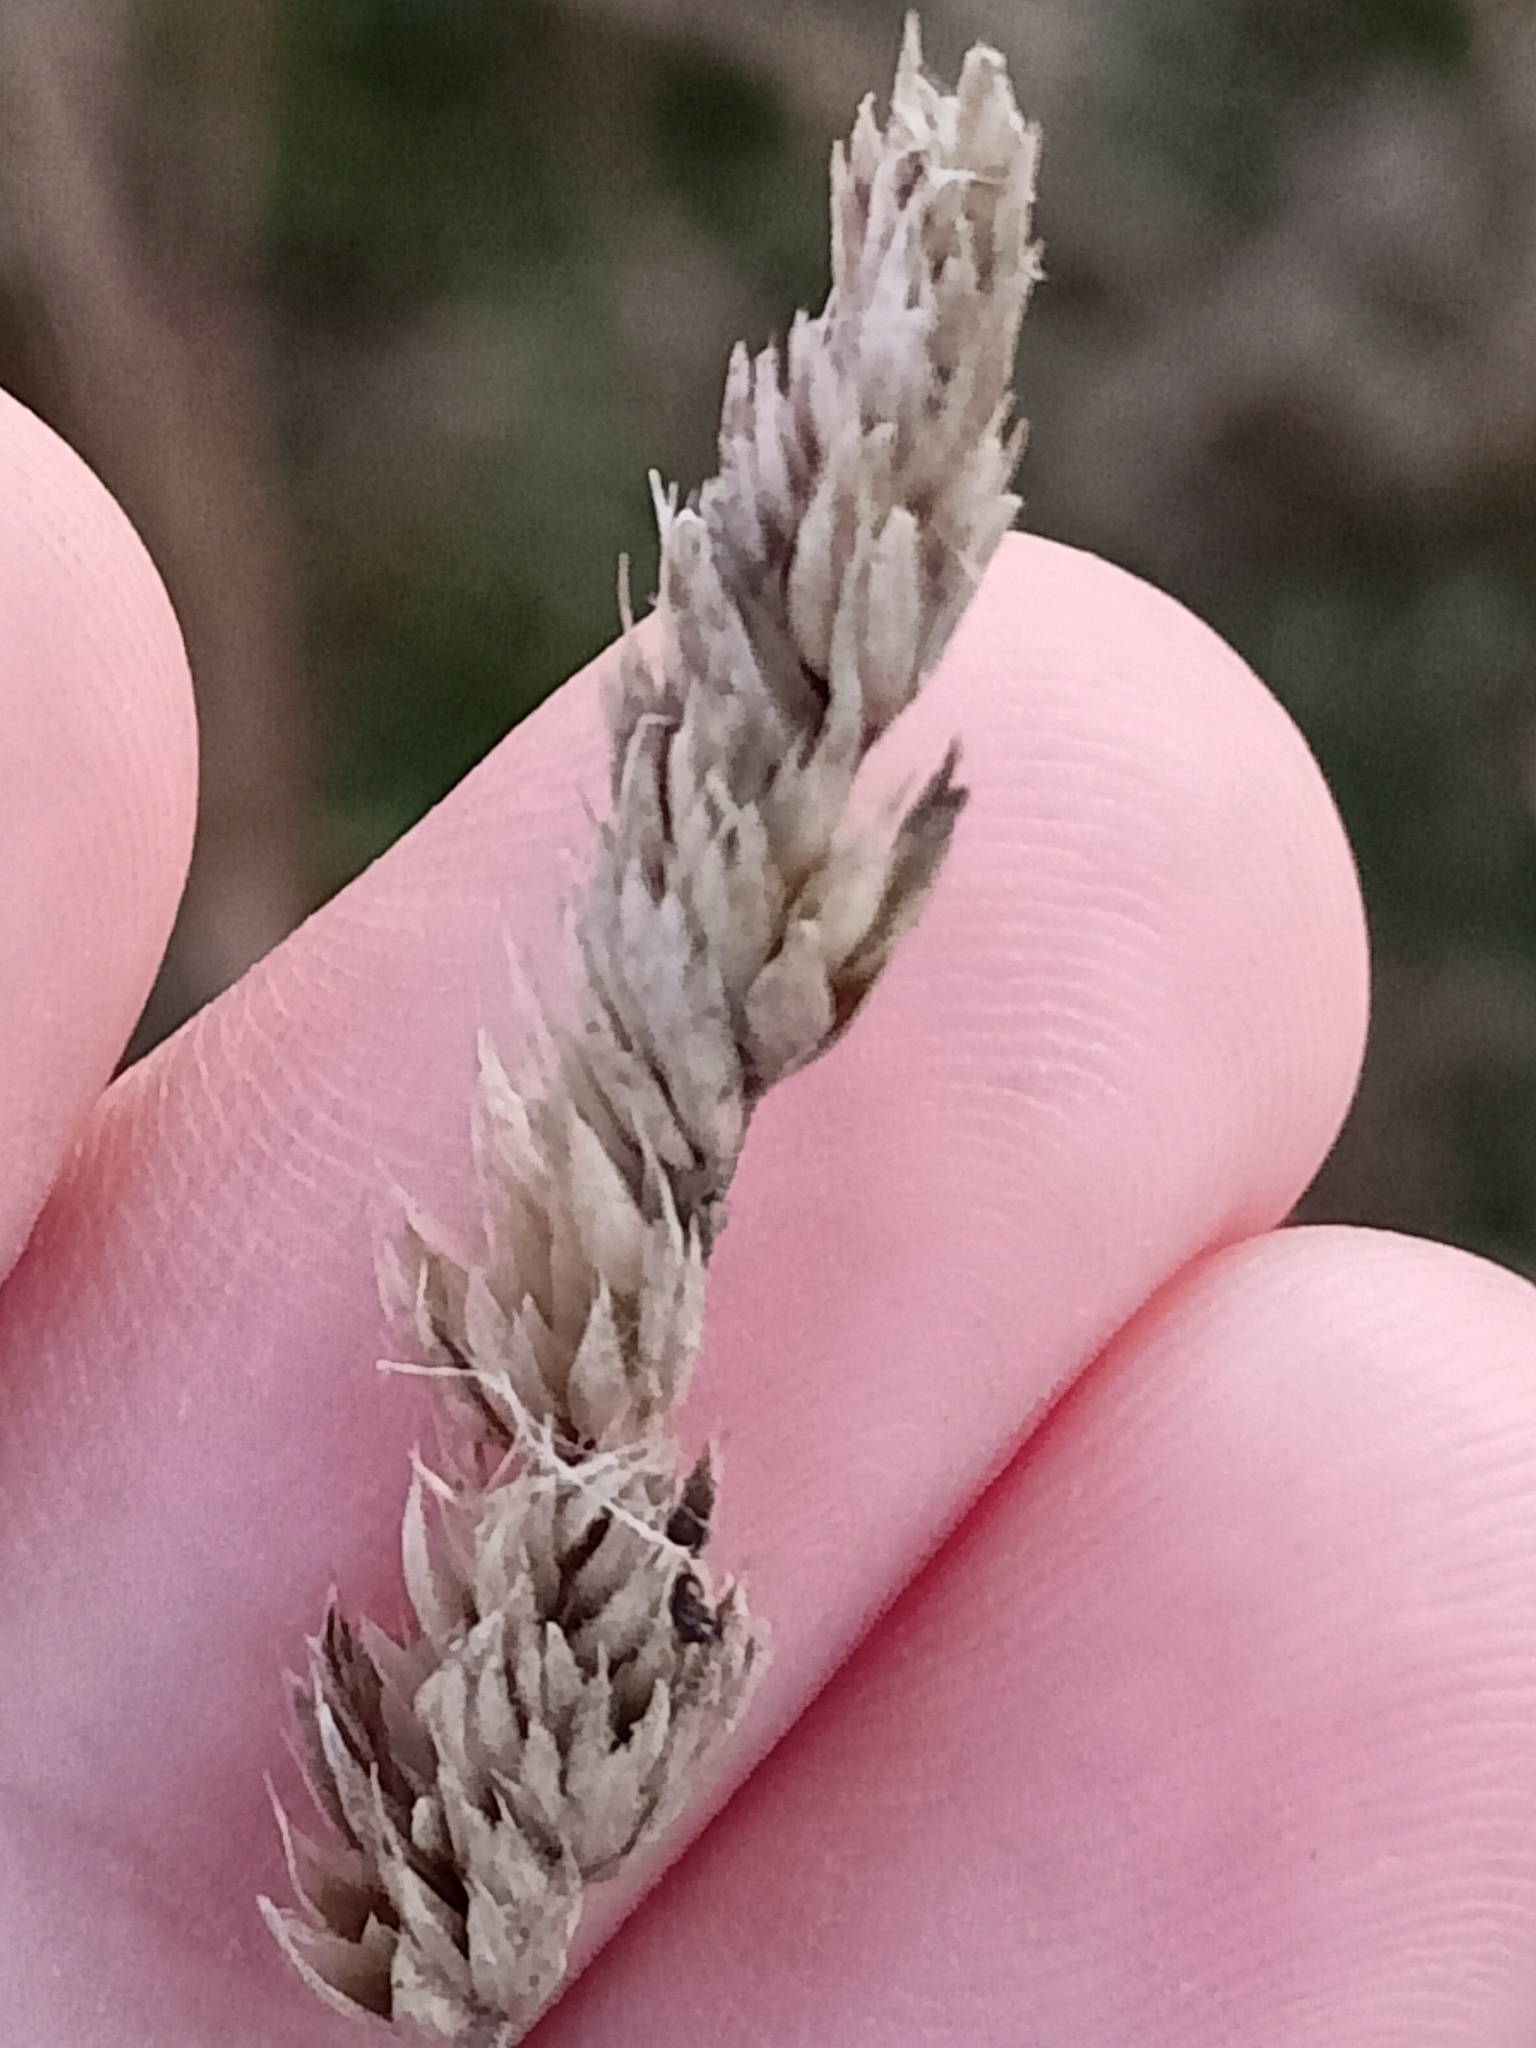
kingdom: Plantae
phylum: Tracheophyta
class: Liliopsida
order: Poales
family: Poaceae
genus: Dactylis
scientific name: Dactylis glomerata
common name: Orchardgrass
